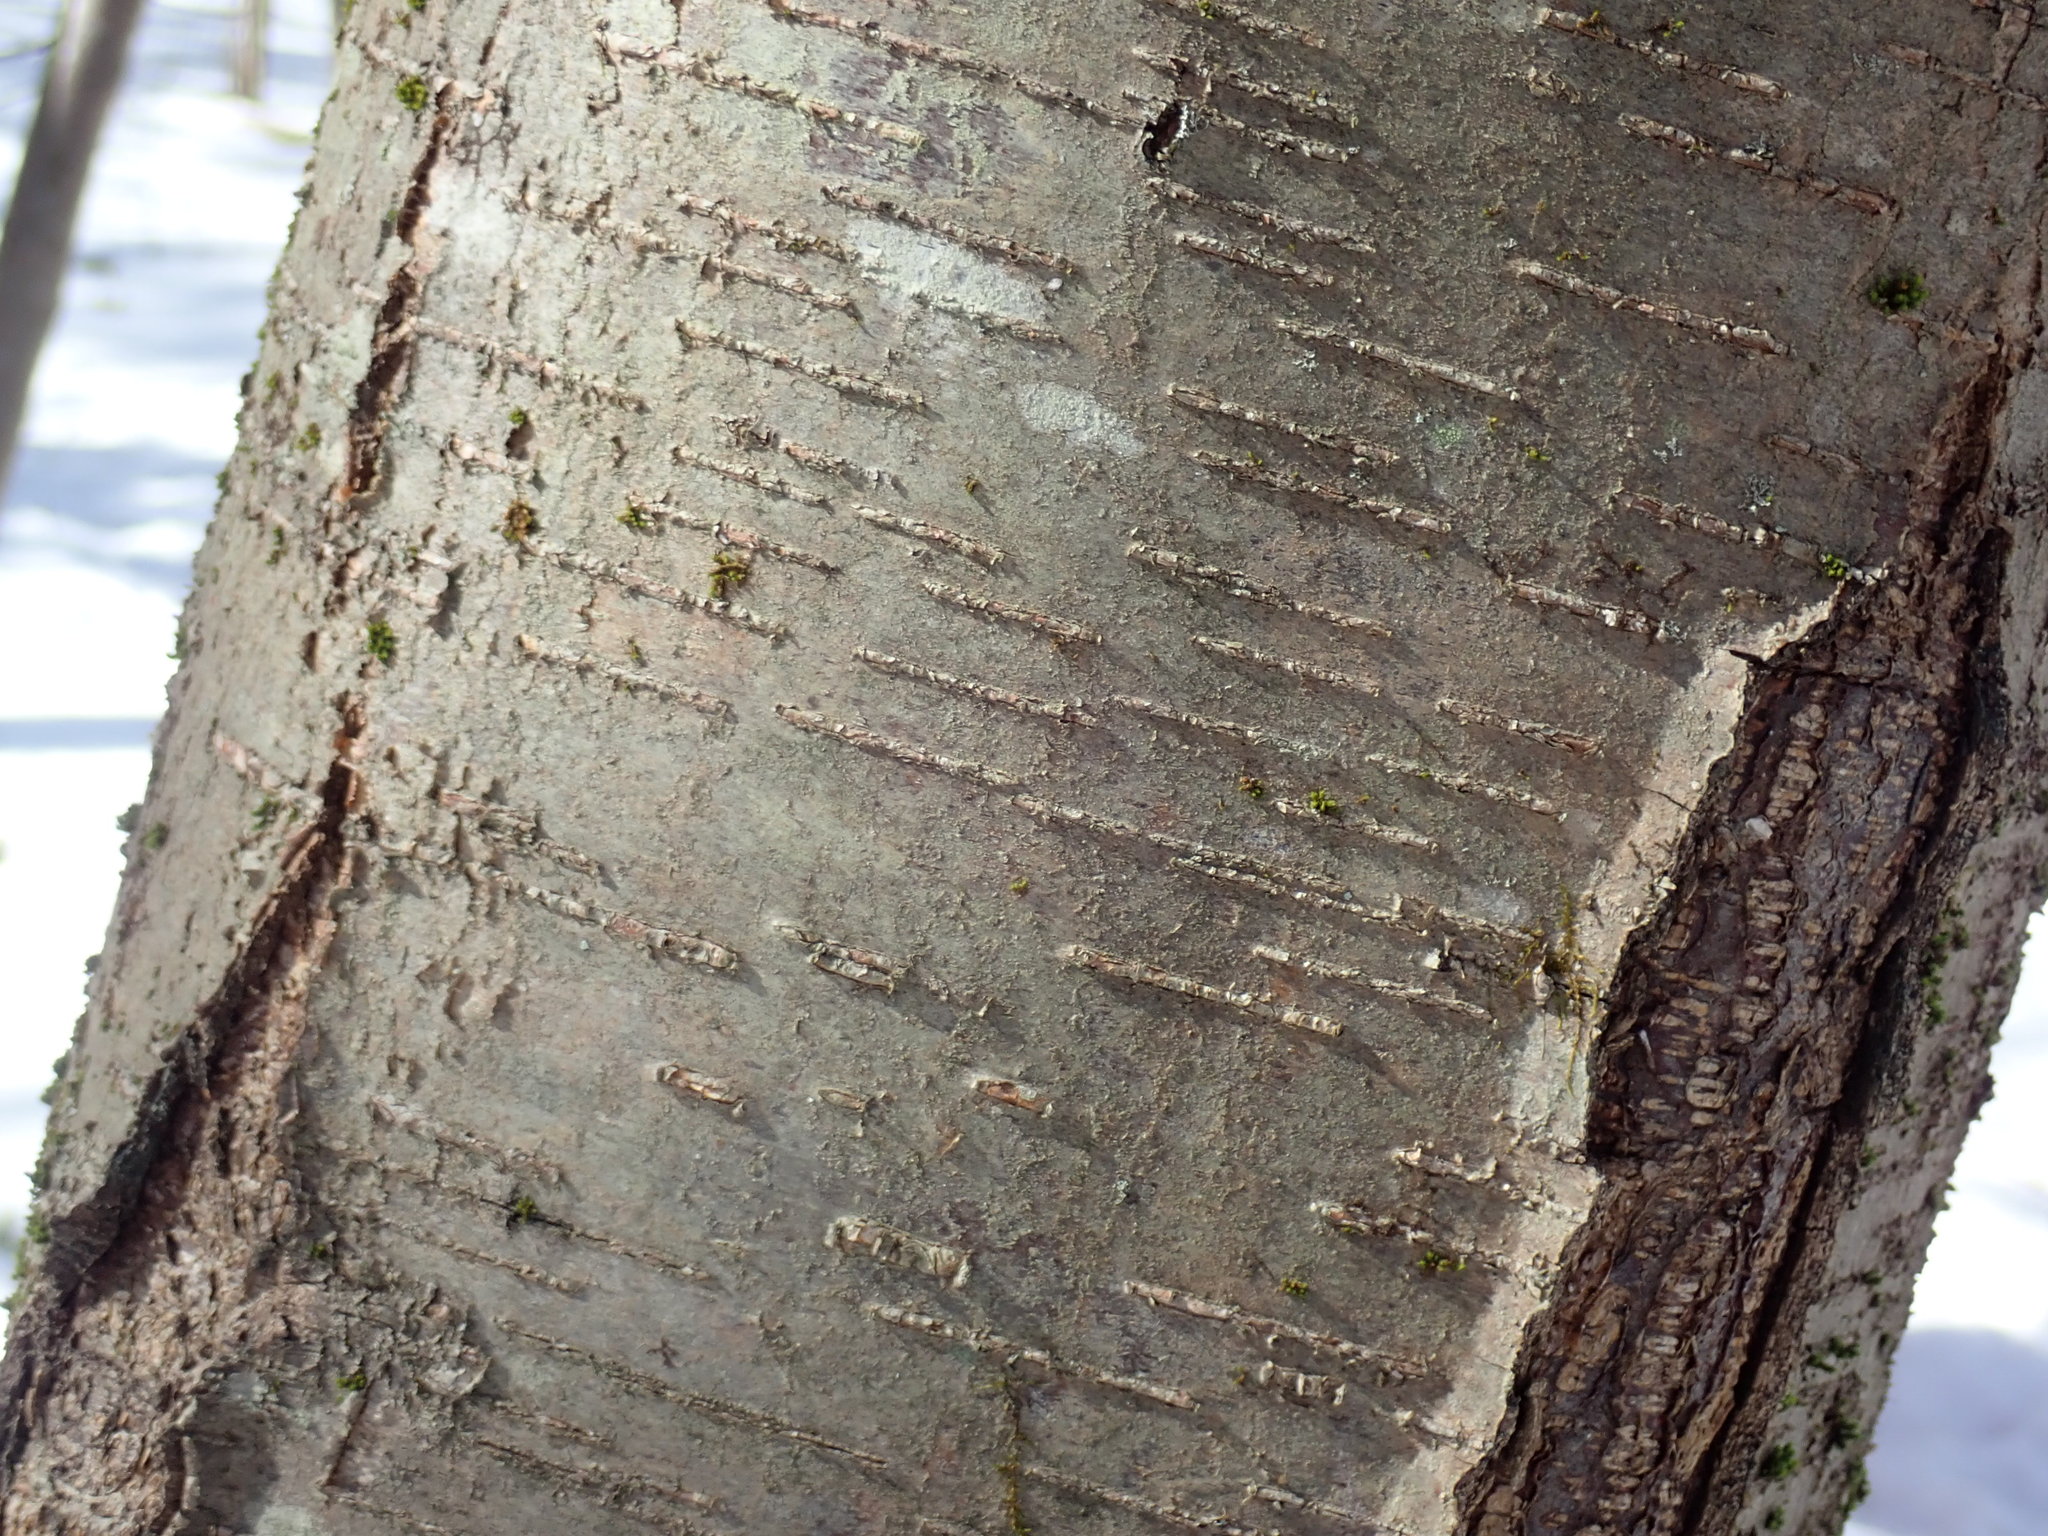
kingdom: Plantae
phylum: Tracheophyta
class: Magnoliopsida
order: Fagales
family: Betulaceae
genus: Betula
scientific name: Betula lenta
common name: Black birch
